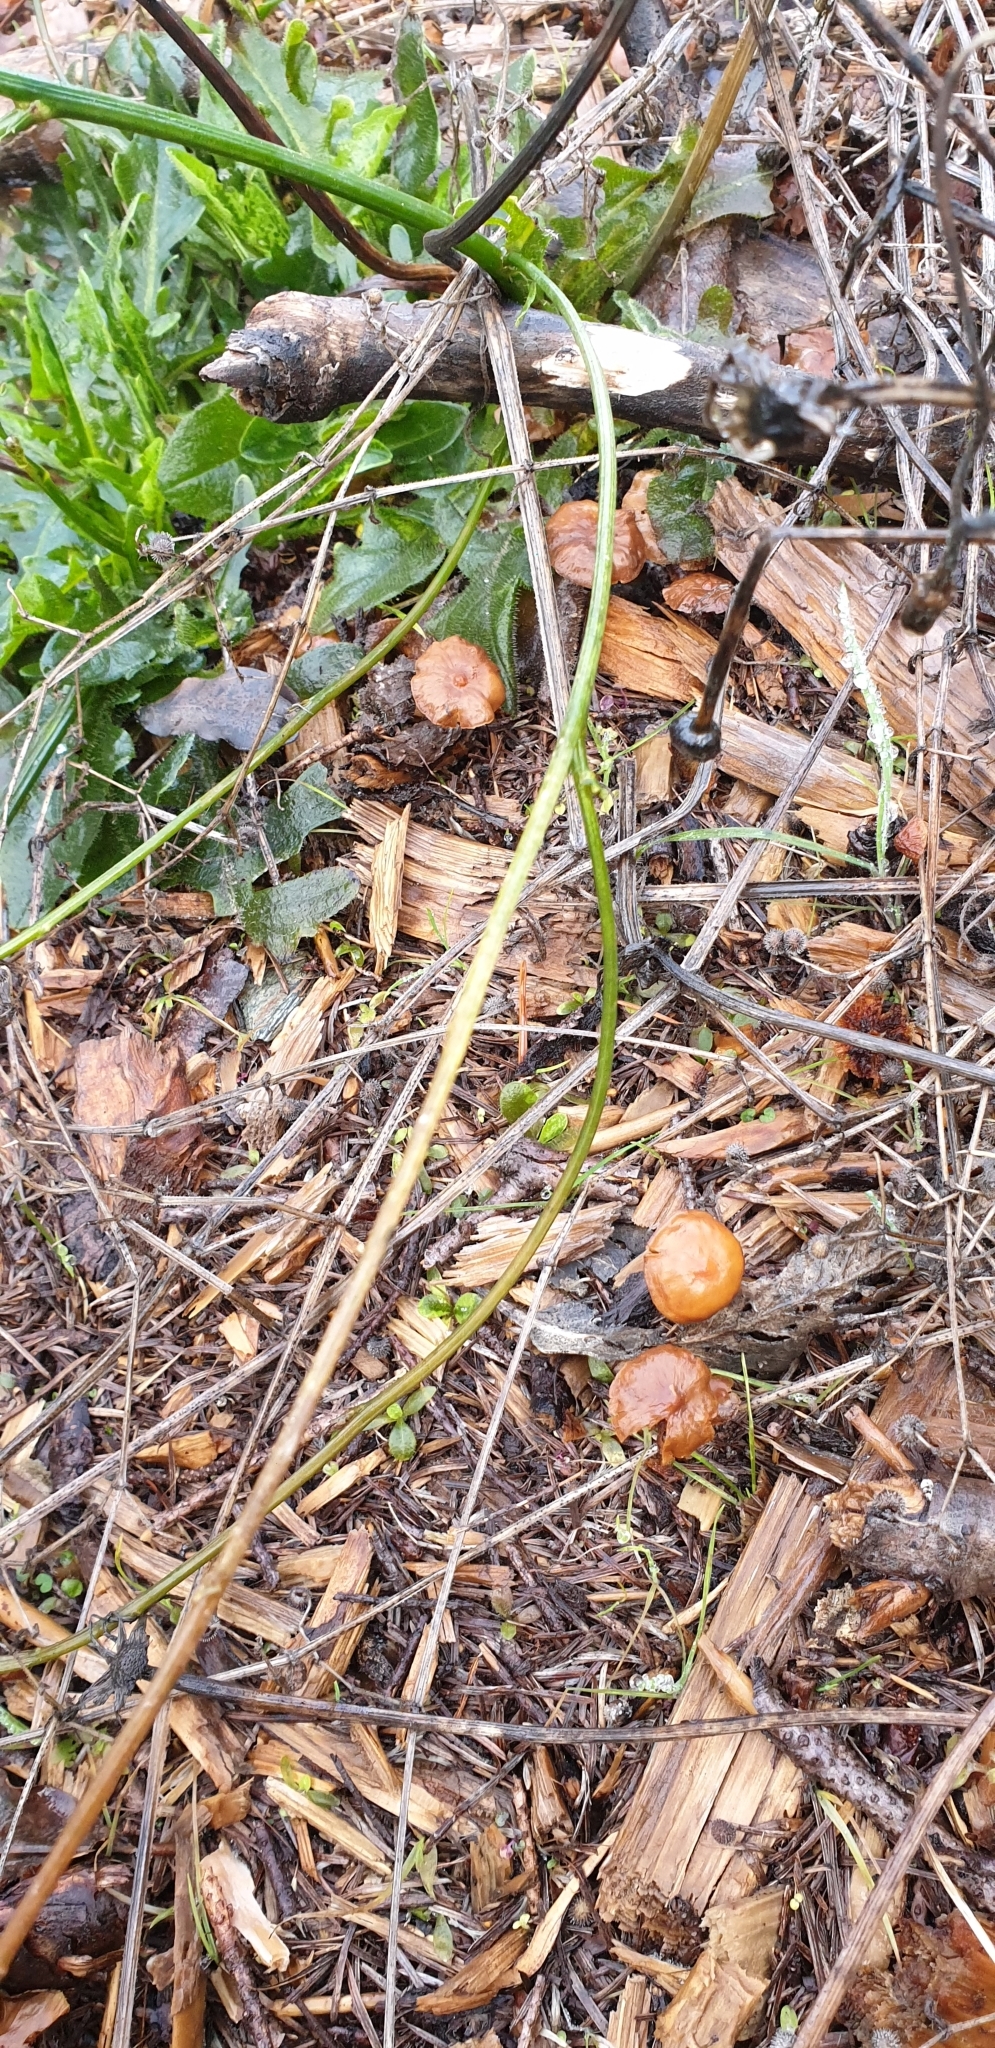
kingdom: Fungi
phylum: Basidiomycota
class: Agaricomycetes
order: Agaricales
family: Strophariaceae
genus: Leratiomyces
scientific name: Leratiomyces ceres
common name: Redlead roundhead
